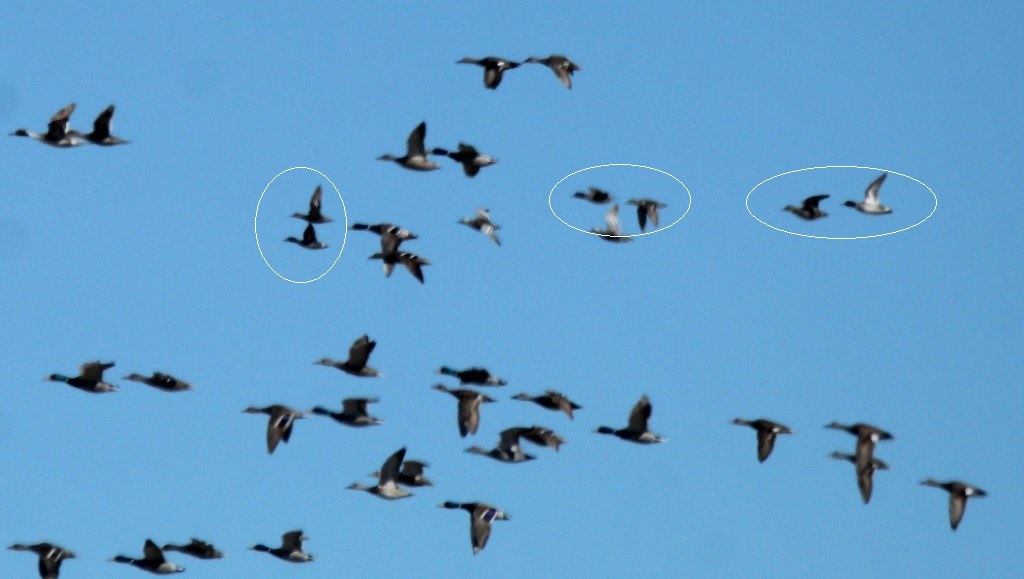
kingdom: Animalia
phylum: Chordata
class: Aves
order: Anseriformes
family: Anatidae
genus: Anas
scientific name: Anas crecca
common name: Eurasian teal
